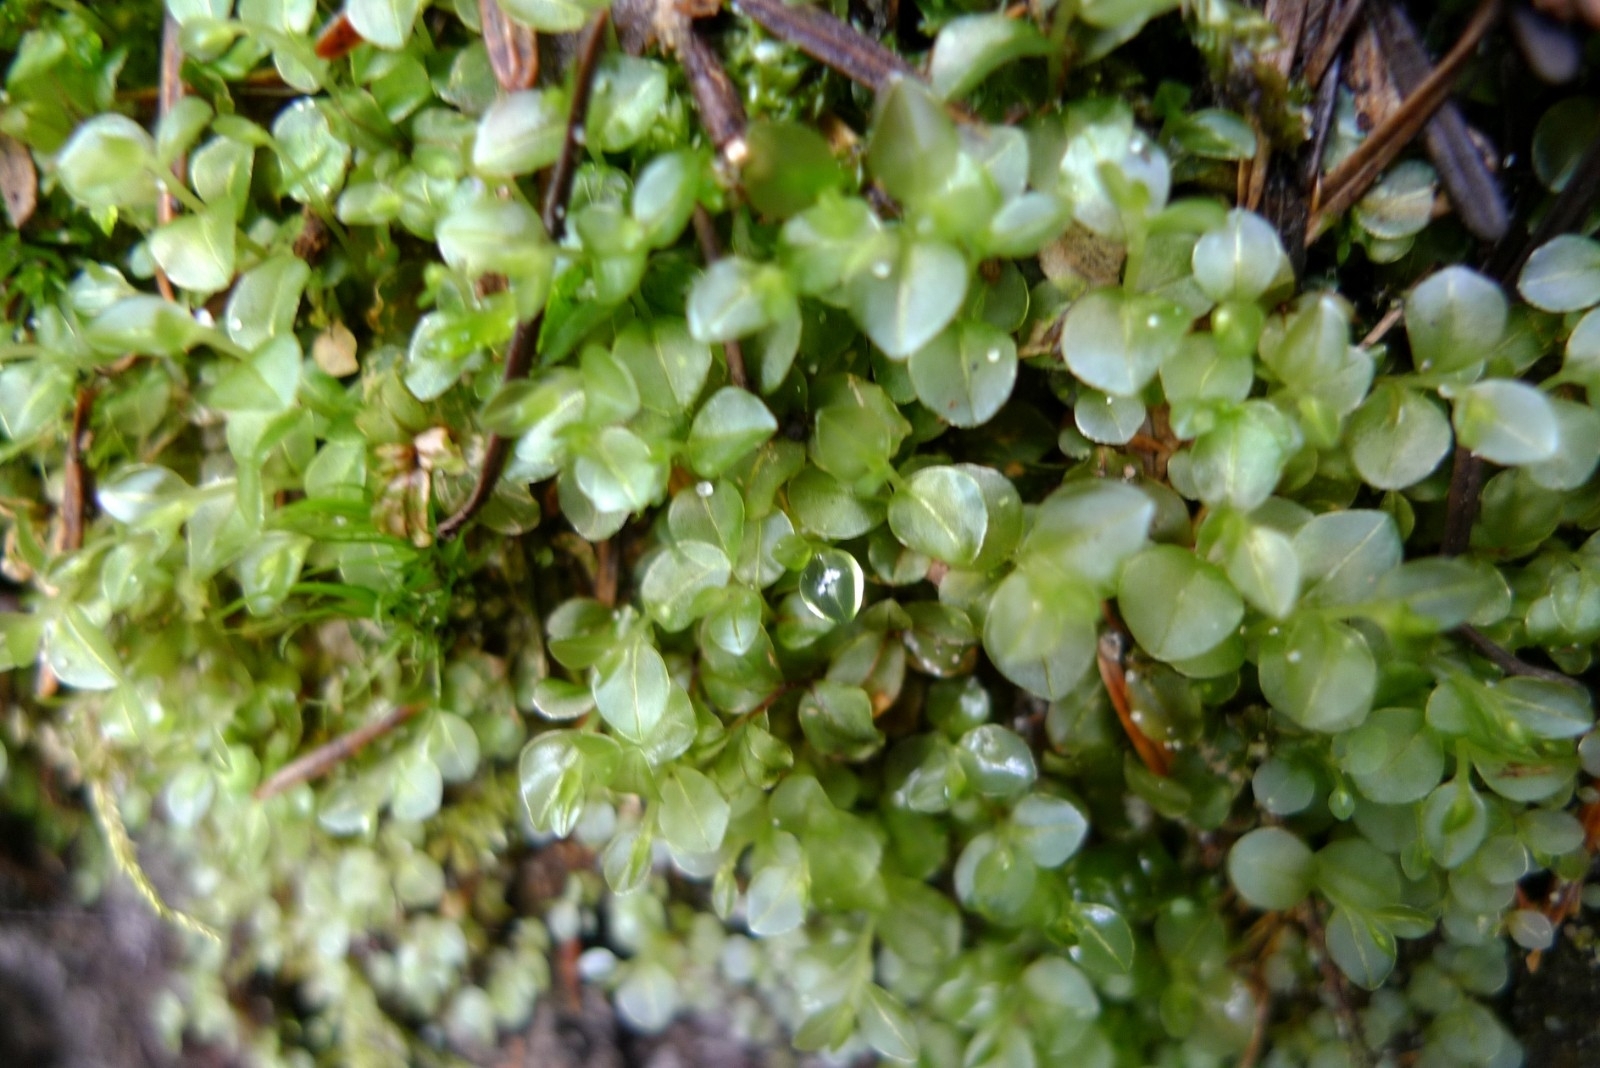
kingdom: Plantae
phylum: Bryophyta
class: Bryopsida
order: Bryales
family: Mniaceae
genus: Rhizomnium
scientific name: Rhizomnium punctatum
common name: Dotted leafy moss
